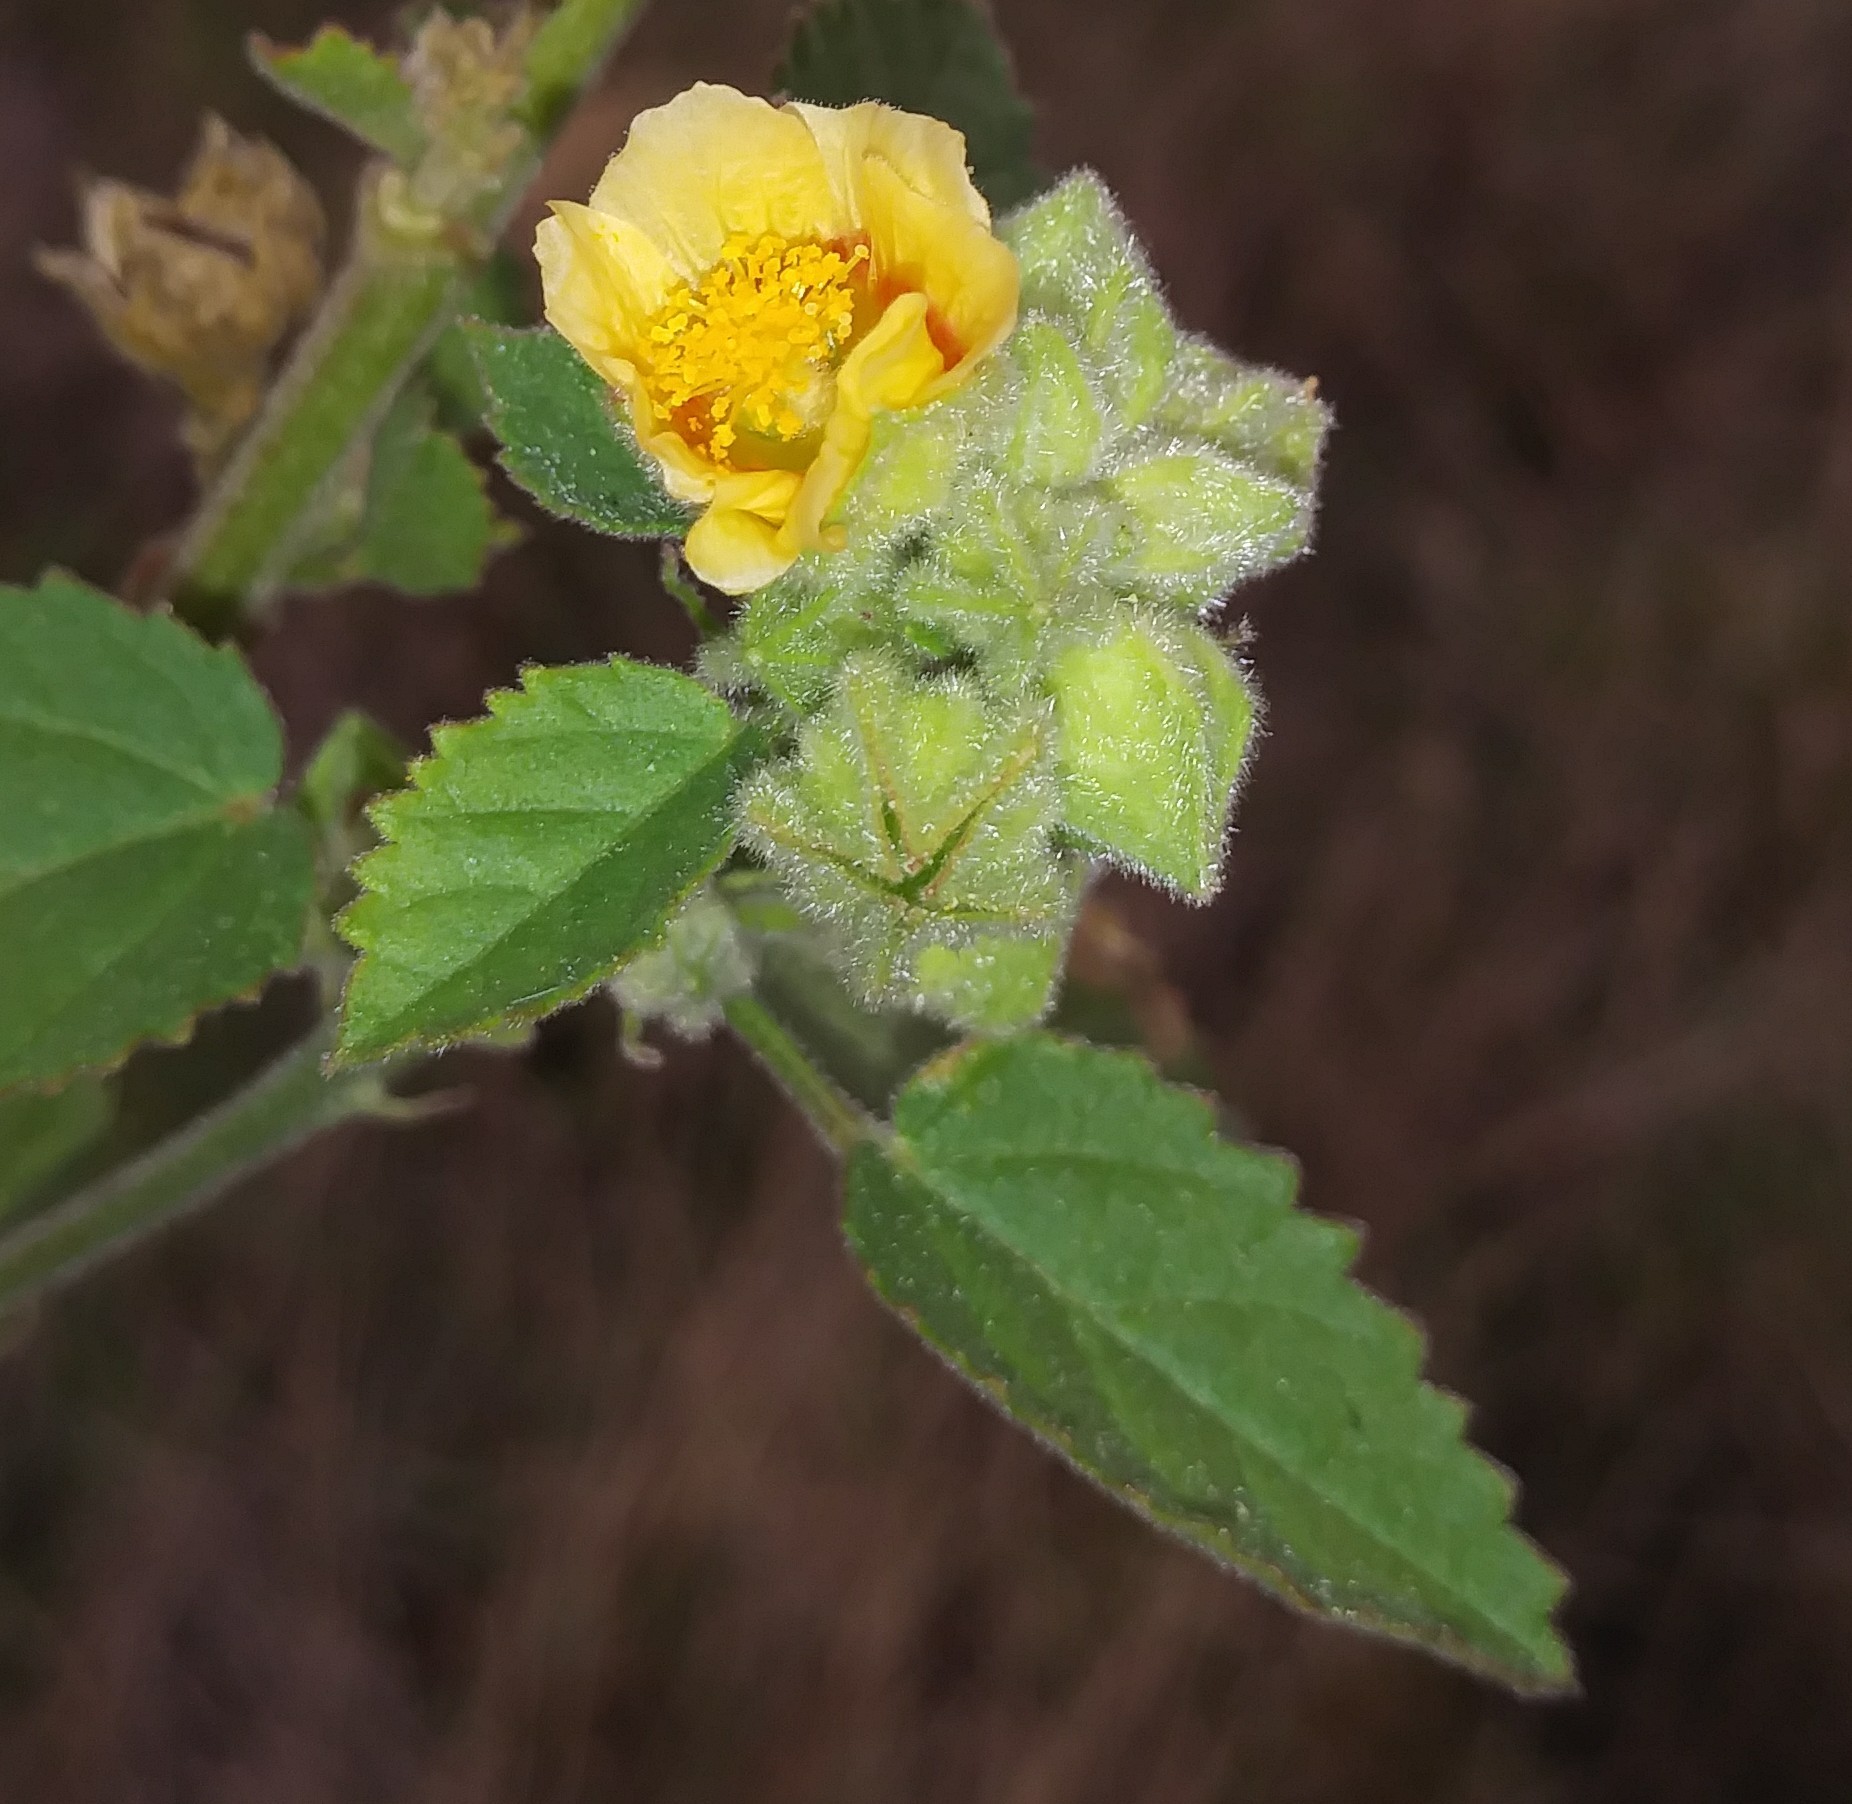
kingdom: Plantae
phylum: Tracheophyta
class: Magnoliopsida
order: Malvales
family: Malvaceae
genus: Sida
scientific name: Sida cordifolia
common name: Ilima
